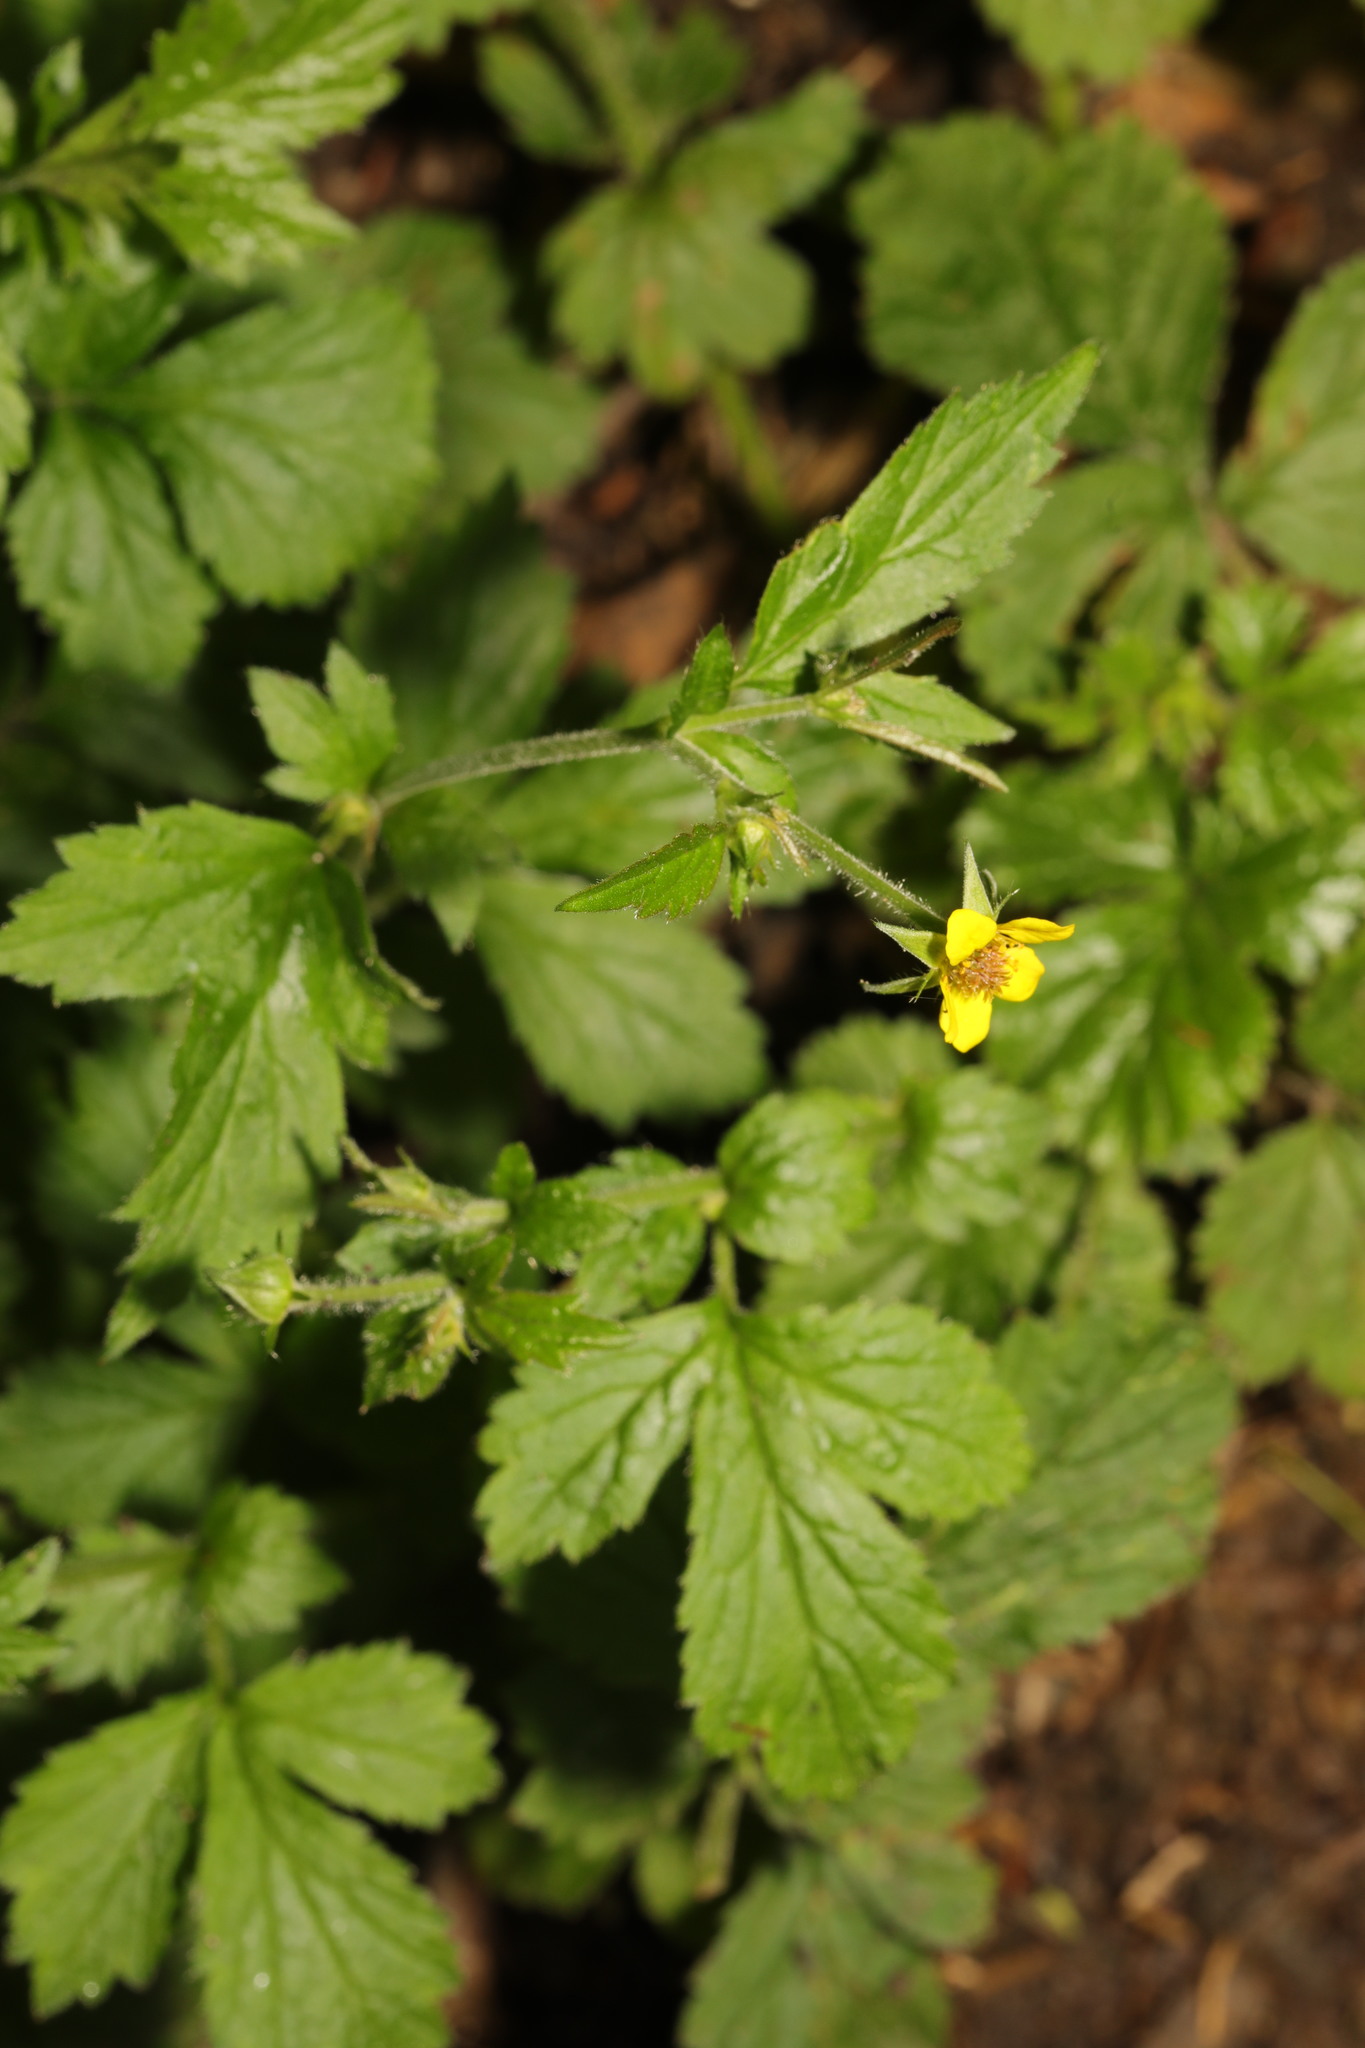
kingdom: Plantae
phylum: Tracheophyta
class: Magnoliopsida
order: Rosales
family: Rosaceae
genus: Geum
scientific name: Geum urbanum
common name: Wood avens
